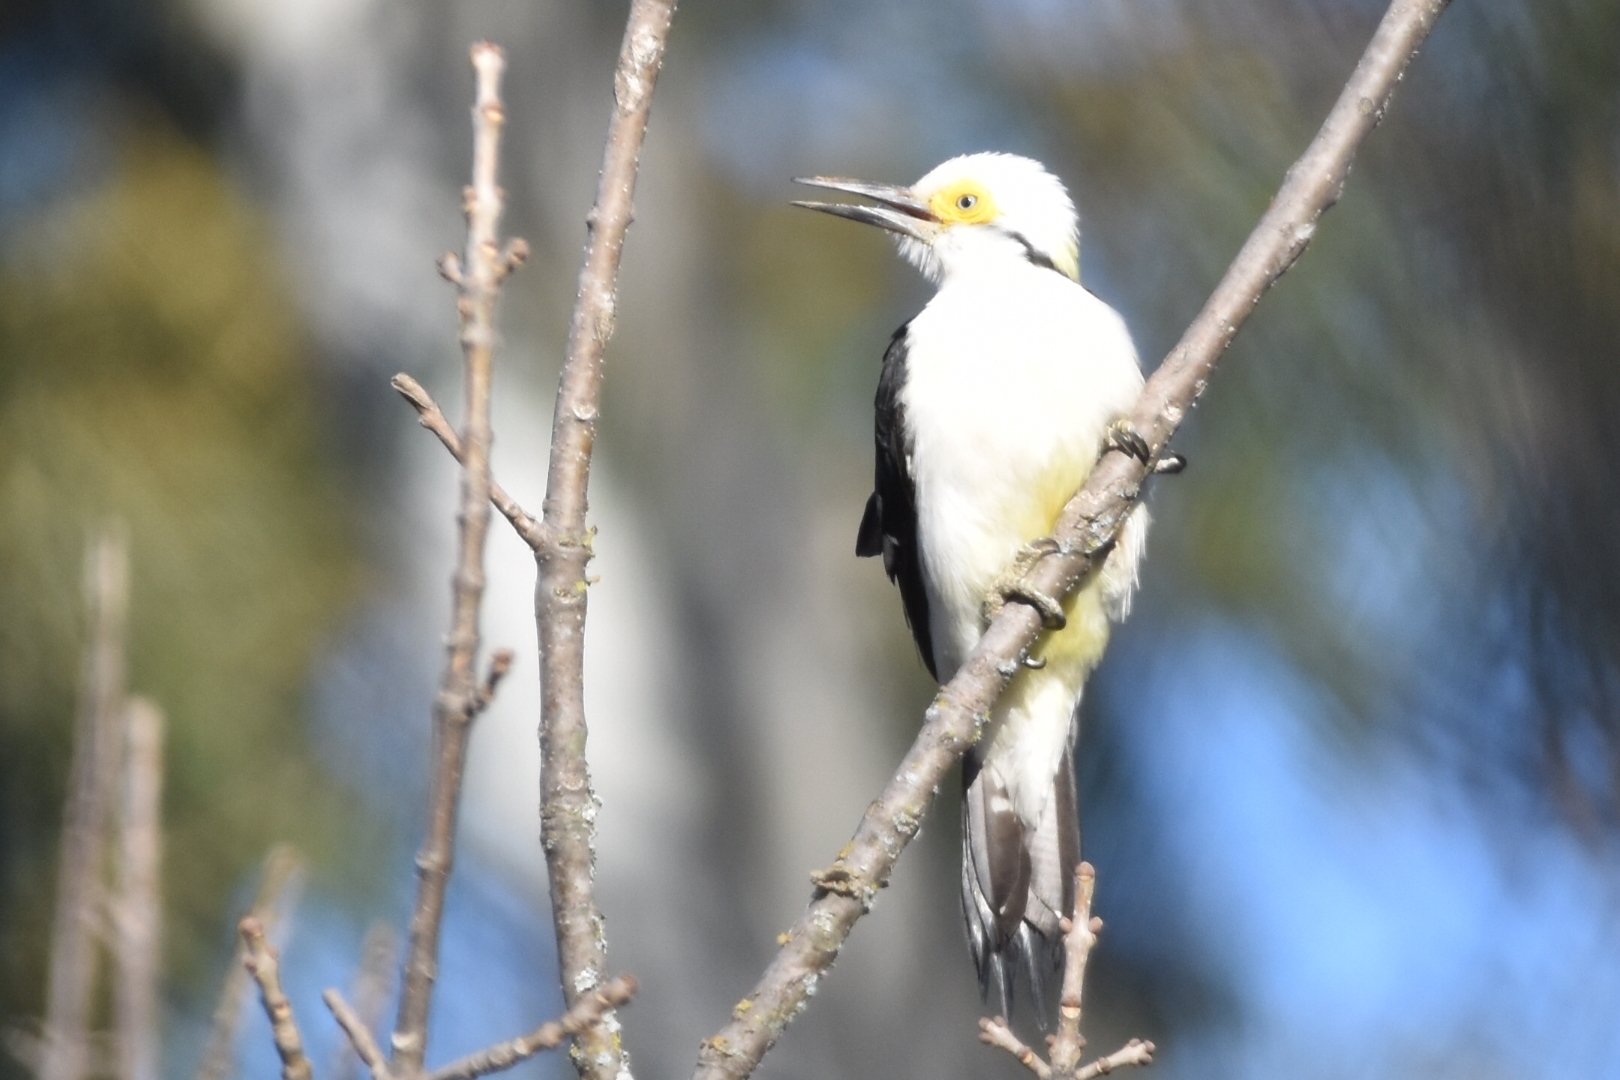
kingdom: Animalia
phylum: Chordata
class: Aves
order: Piciformes
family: Picidae
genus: Melanerpes
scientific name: Melanerpes candidus
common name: White woodpecker
